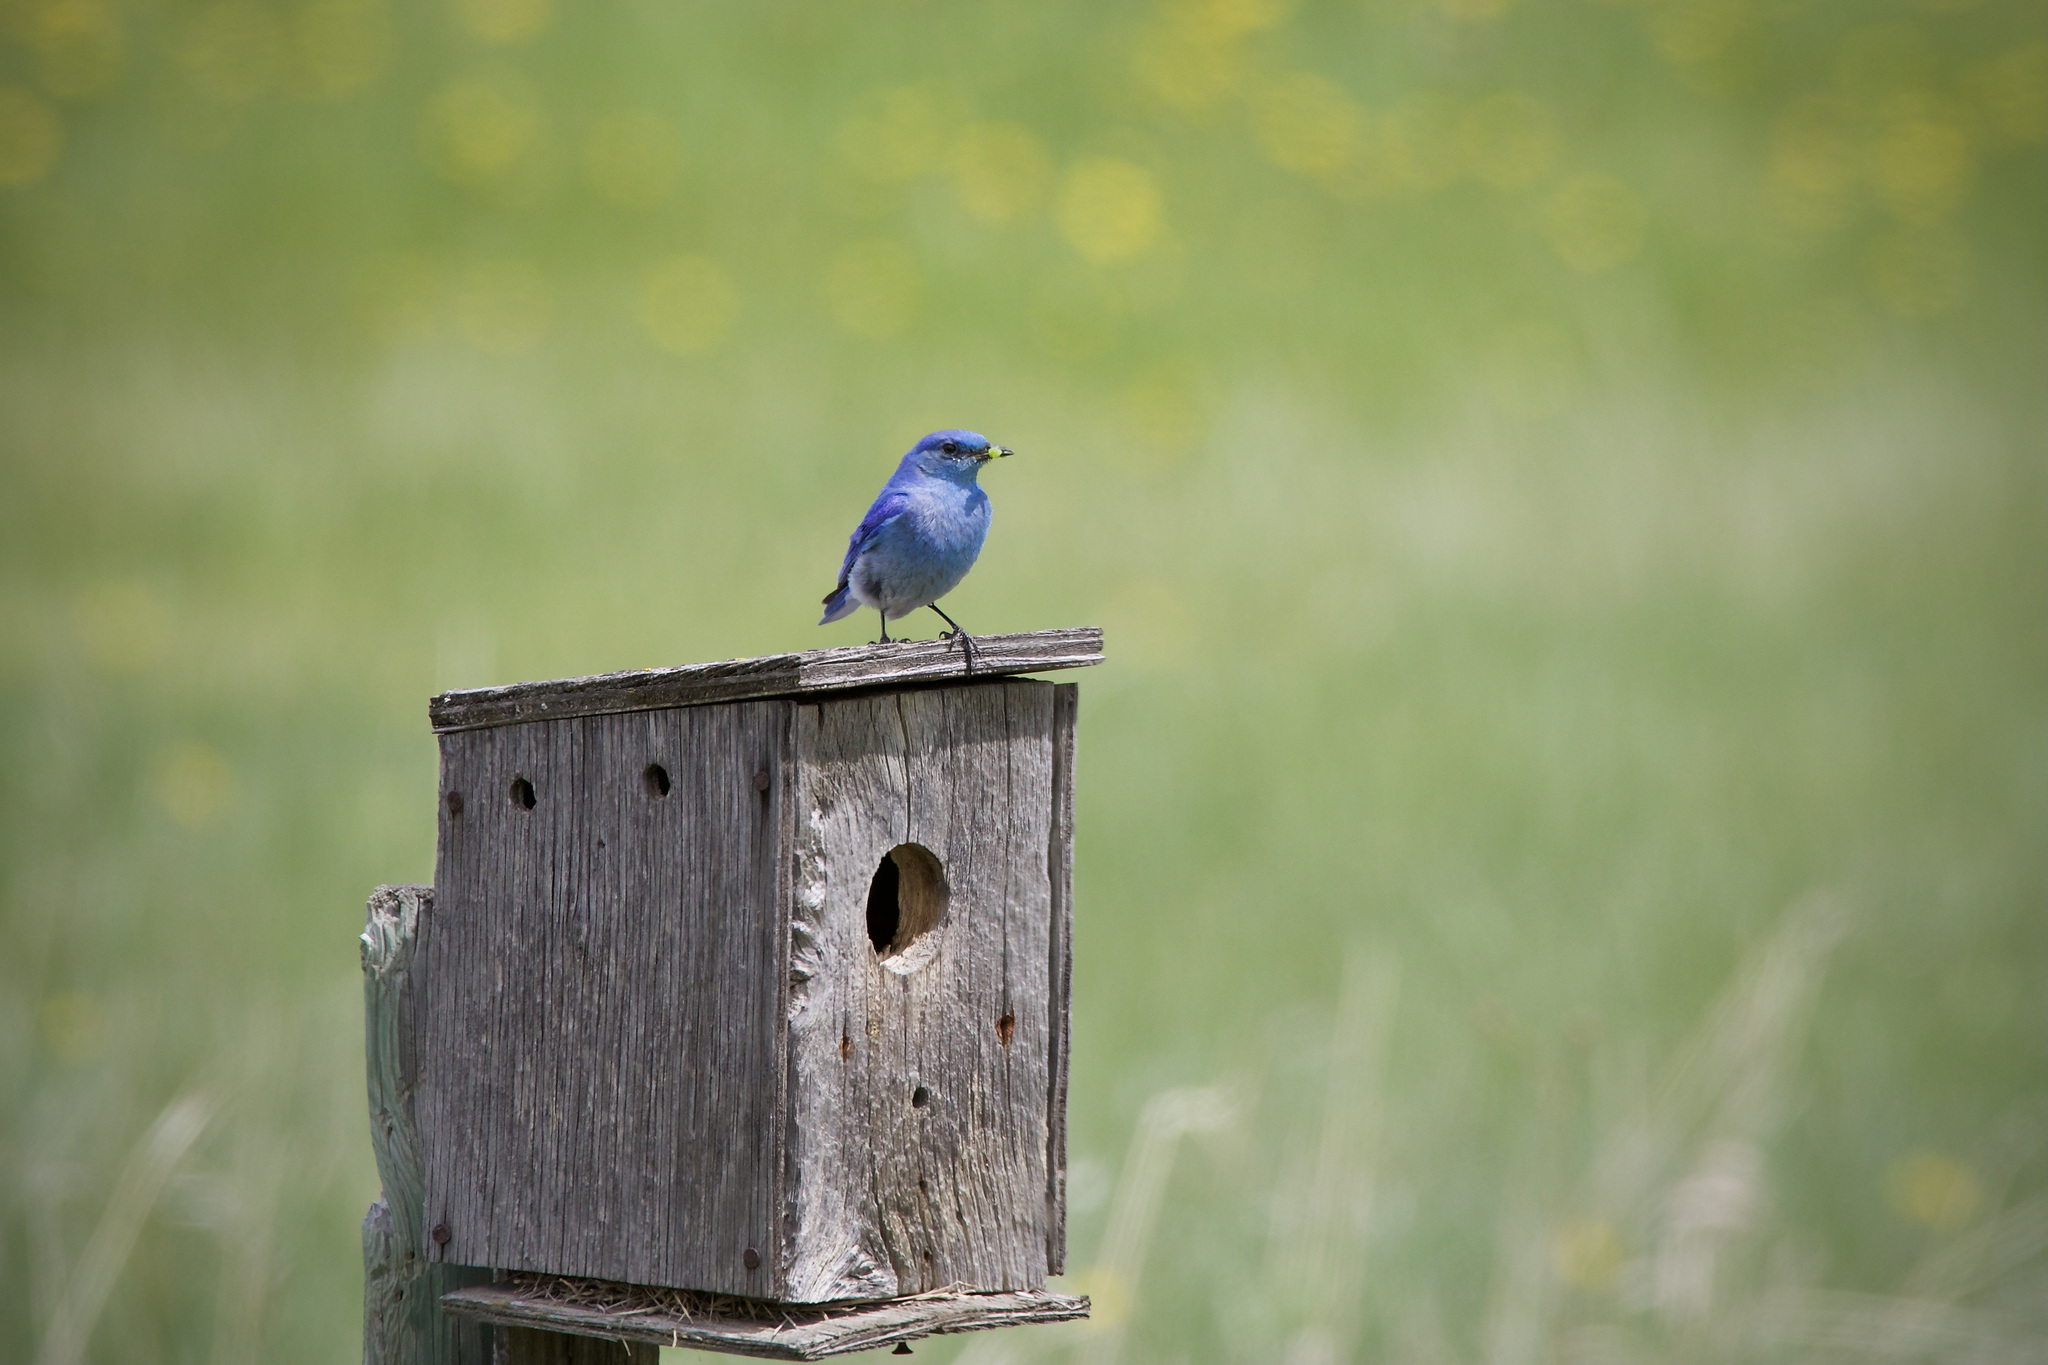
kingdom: Animalia
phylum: Chordata
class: Aves
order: Passeriformes
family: Turdidae
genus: Sialia
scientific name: Sialia currucoides
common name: Mountain bluebird
